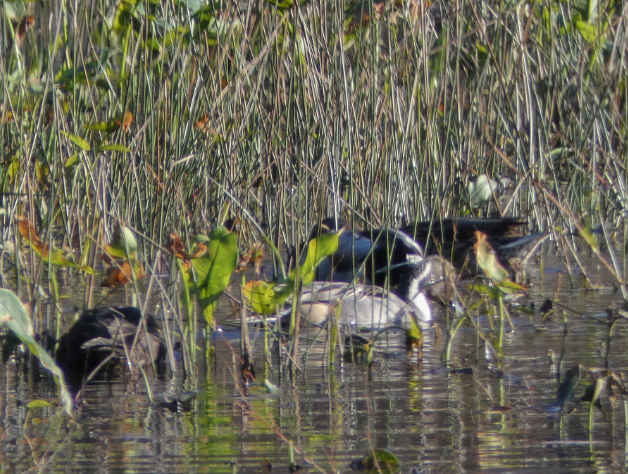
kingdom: Animalia
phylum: Chordata
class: Aves
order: Anseriformes
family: Anatidae
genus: Anas
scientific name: Anas acuta
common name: Northern pintail
